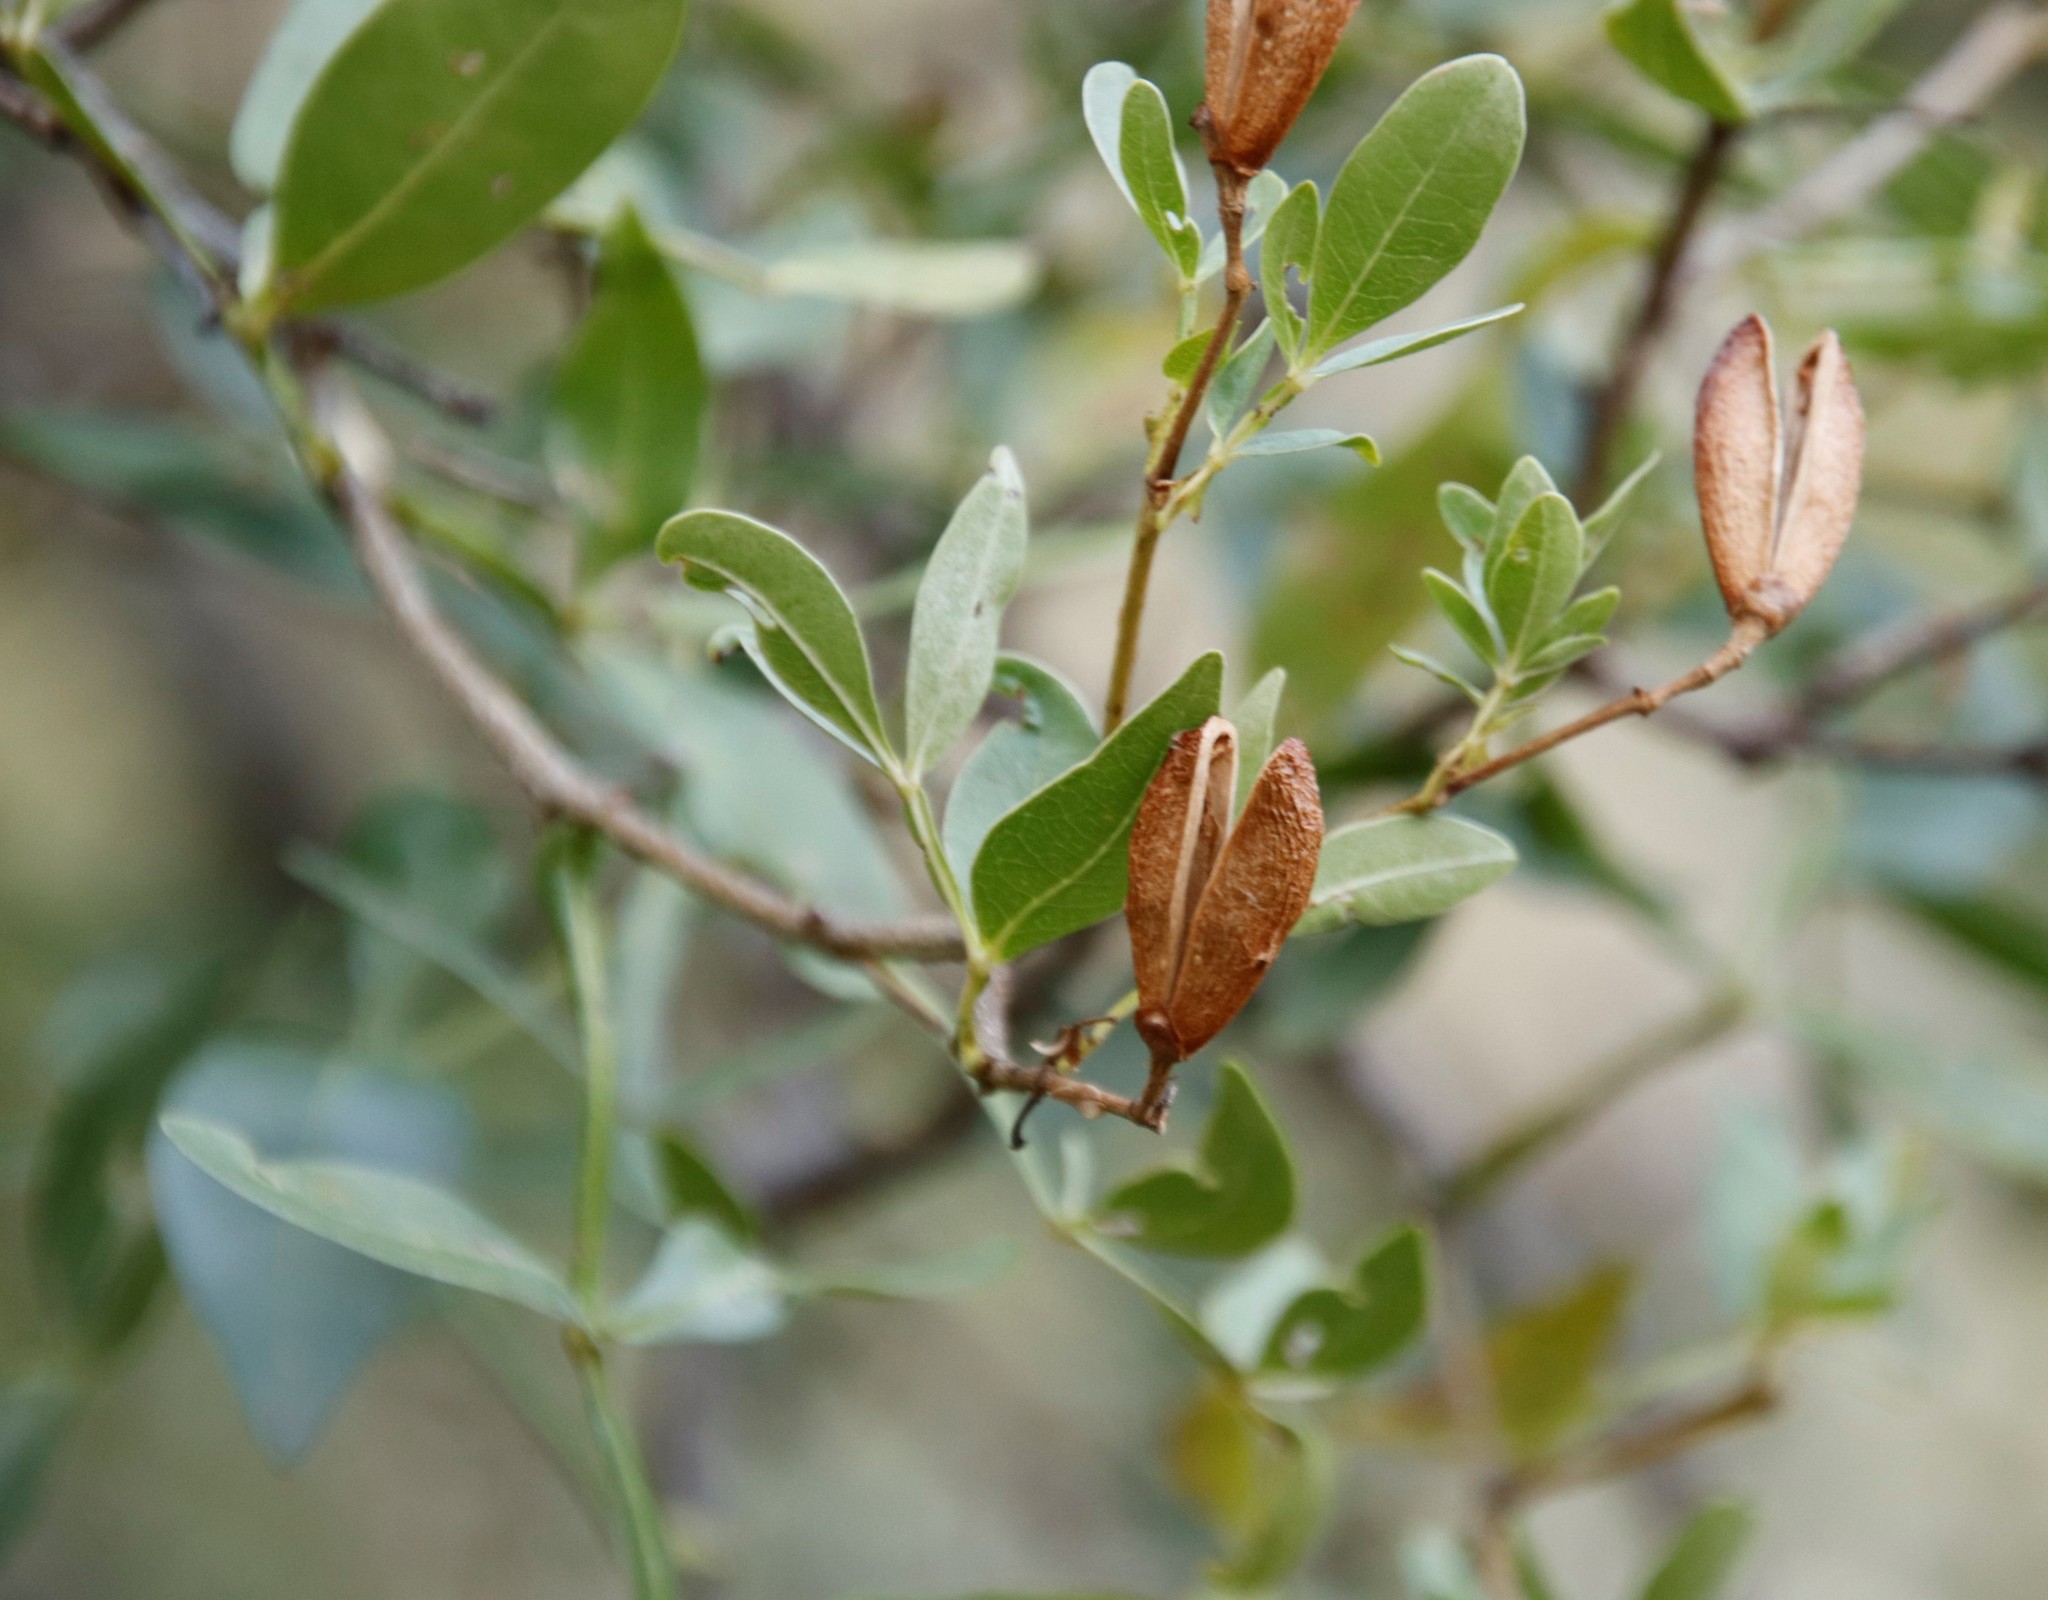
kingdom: Plantae
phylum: Tracheophyta
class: Magnoliopsida
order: Lamiales
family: Oleaceae
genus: Schrebera
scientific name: Schrebera alata
